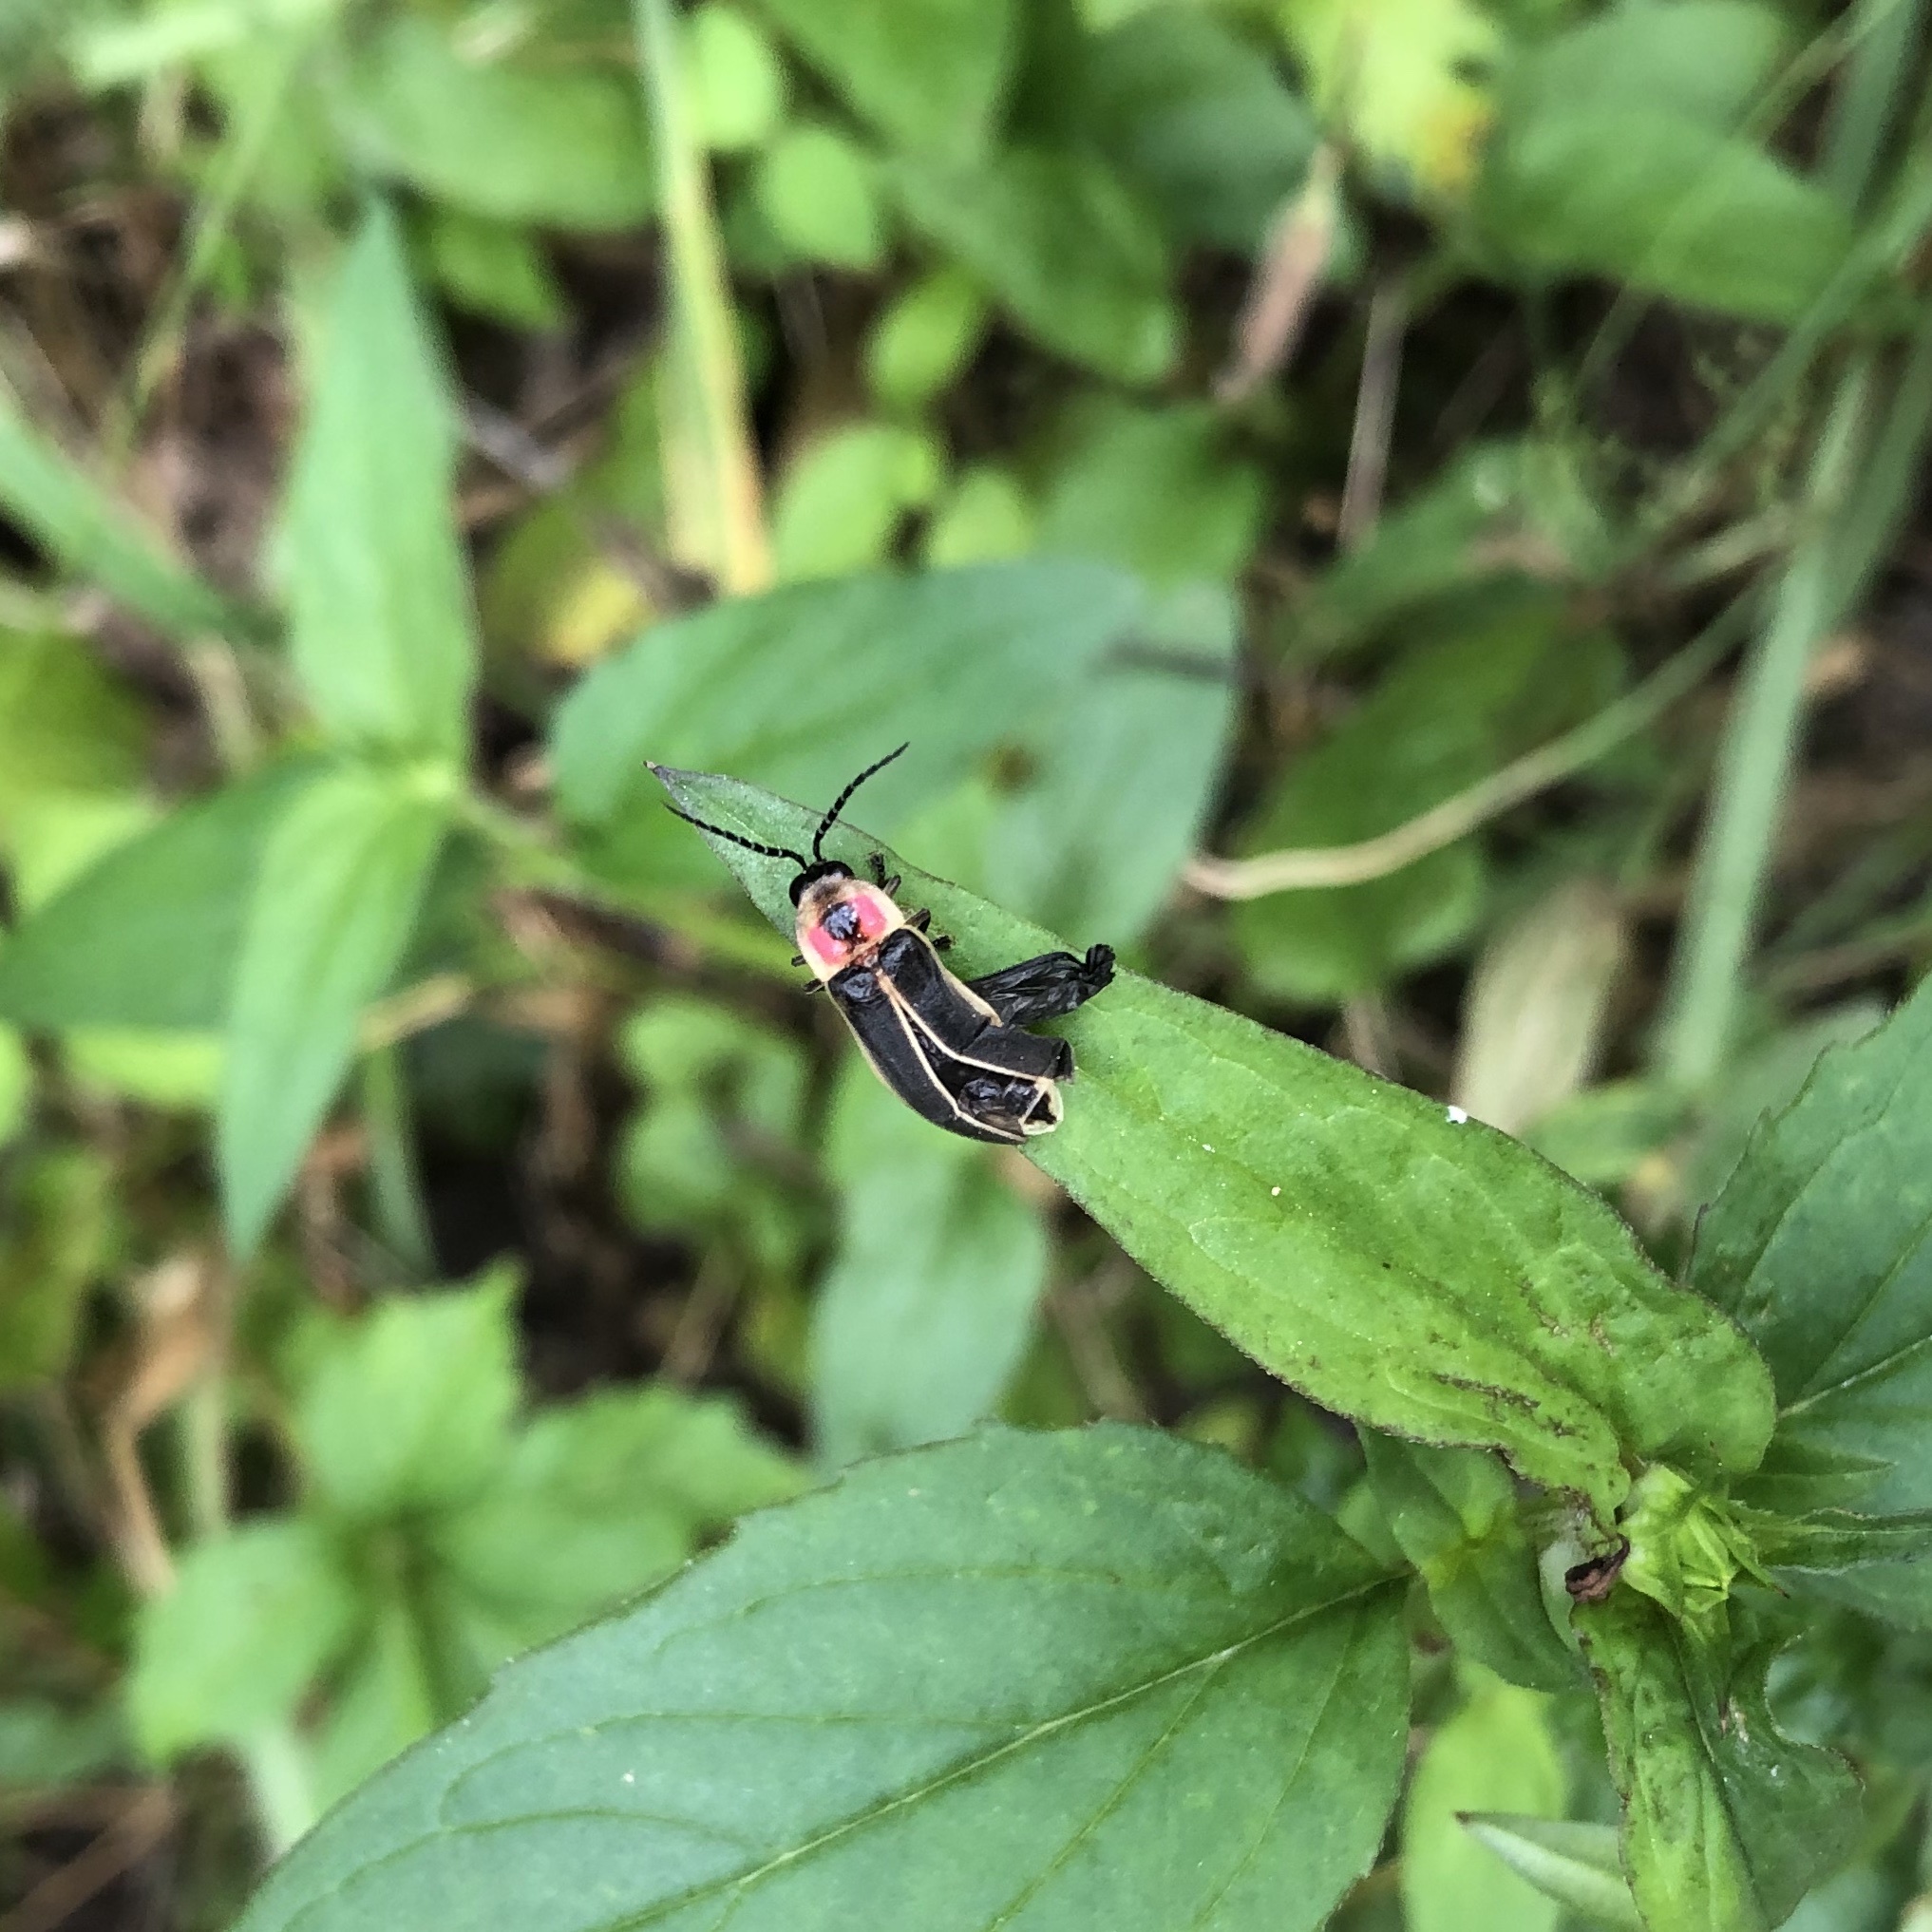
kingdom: Animalia
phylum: Arthropoda
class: Insecta
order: Coleoptera
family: Lampyridae
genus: Photinus
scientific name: Photinus pyralis
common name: Big dipper firefly
